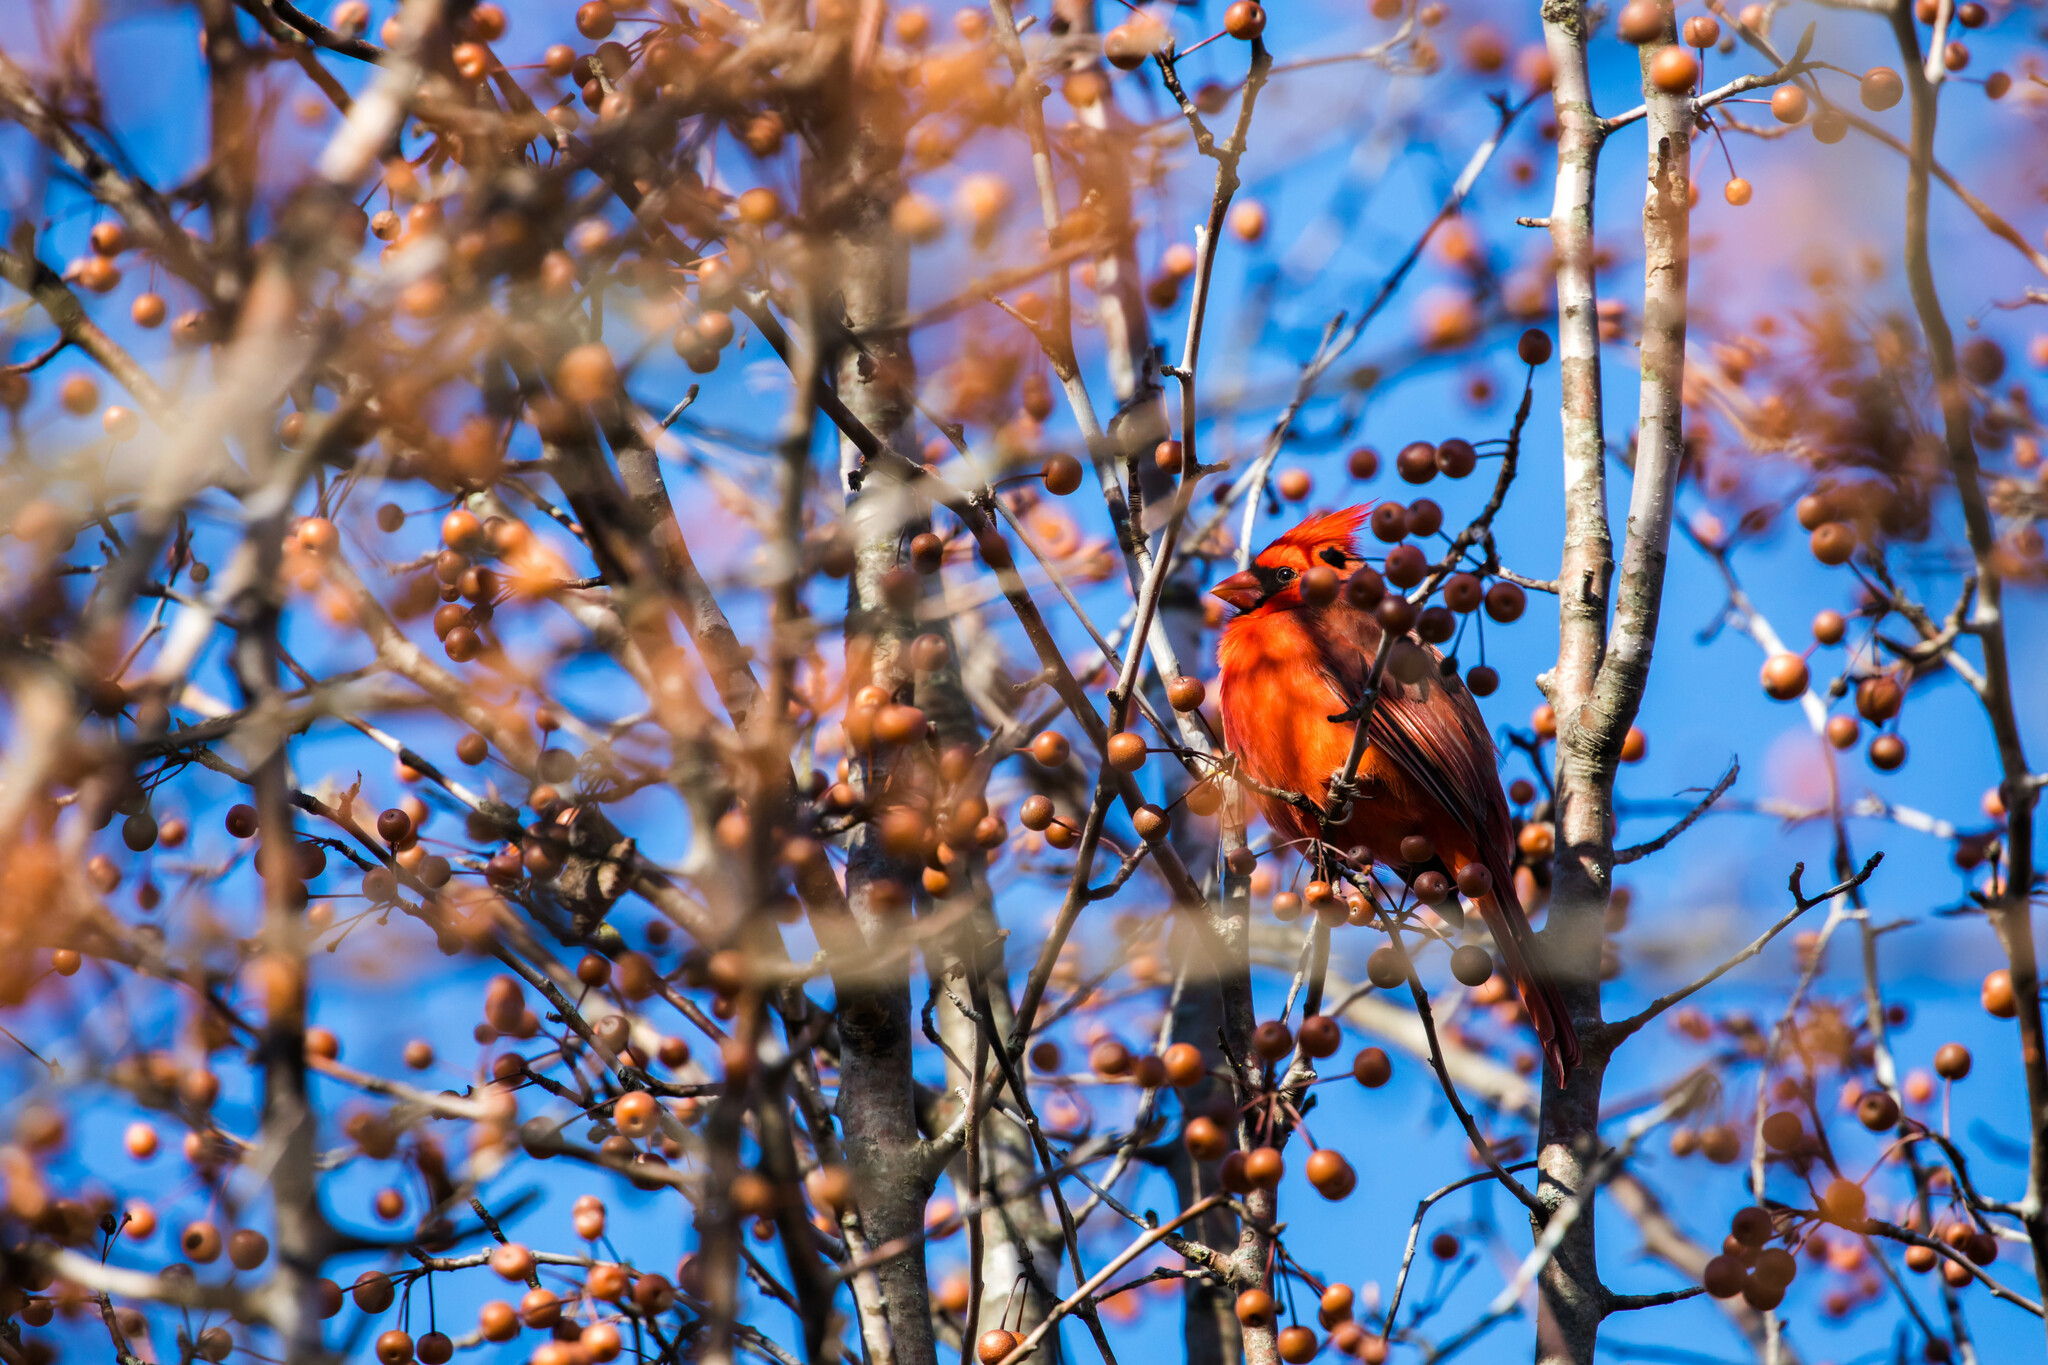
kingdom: Animalia
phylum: Chordata
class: Aves
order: Passeriformes
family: Cardinalidae
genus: Cardinalis
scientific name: Cardinalis cardinalis
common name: Northern cardinal
